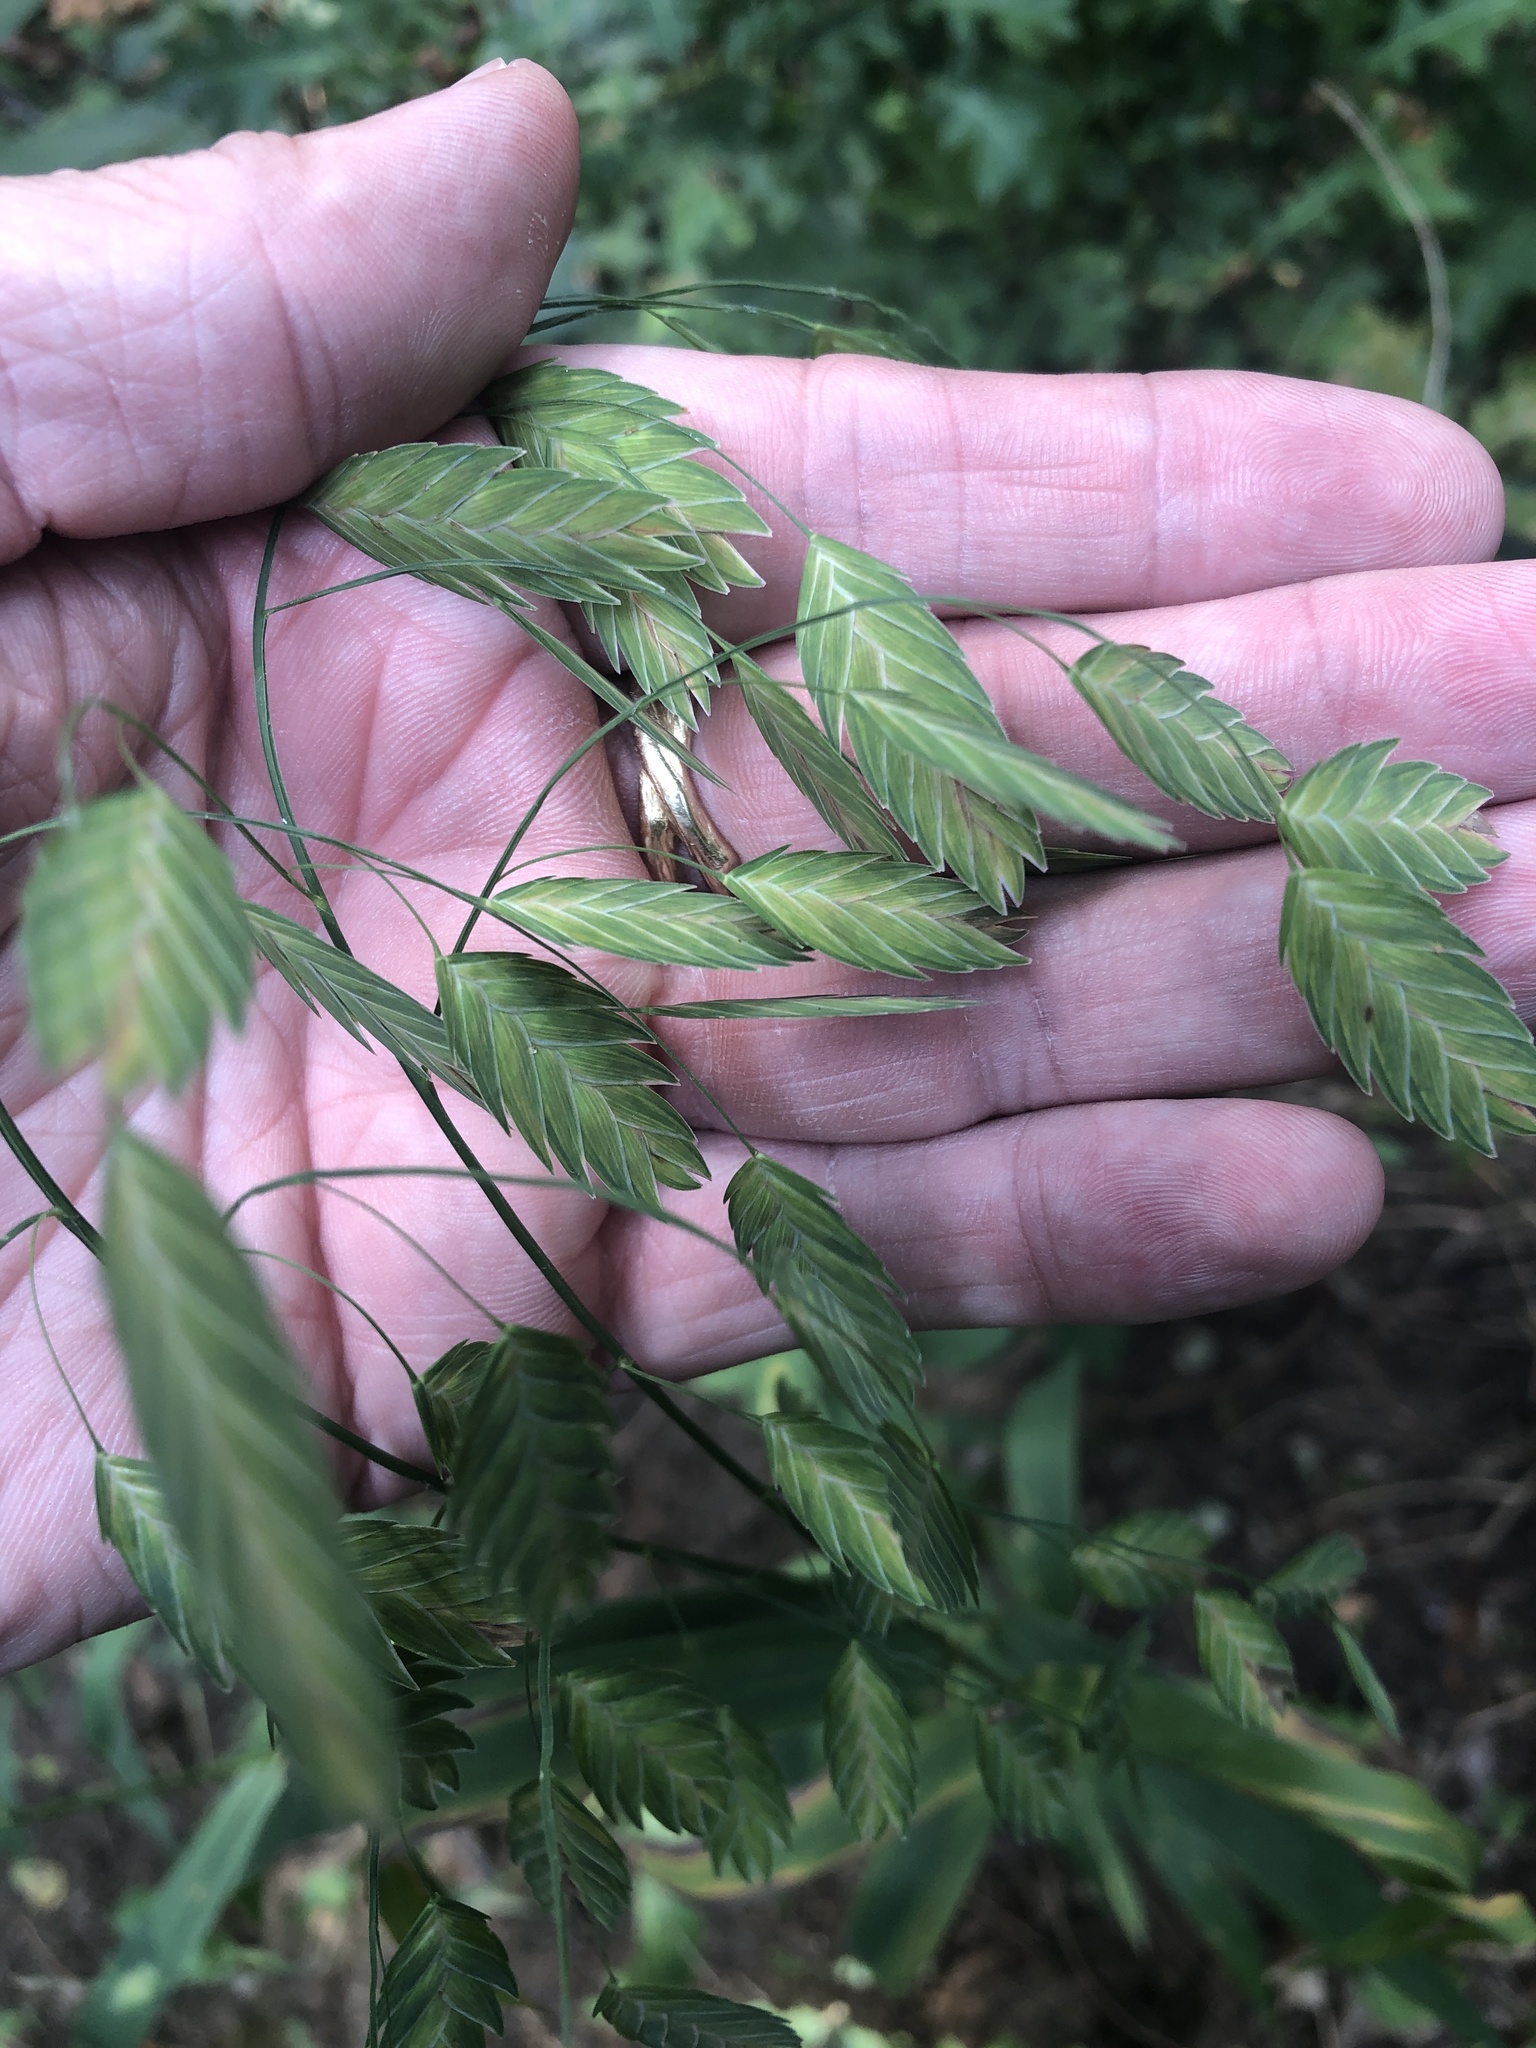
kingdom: Plantae
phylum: Tracheophyta
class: Liliopsida
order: Poales
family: Poaceae
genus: Chasmanthium
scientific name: Chasmanthium latifolium
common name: Broad-leaved chasmanthium
